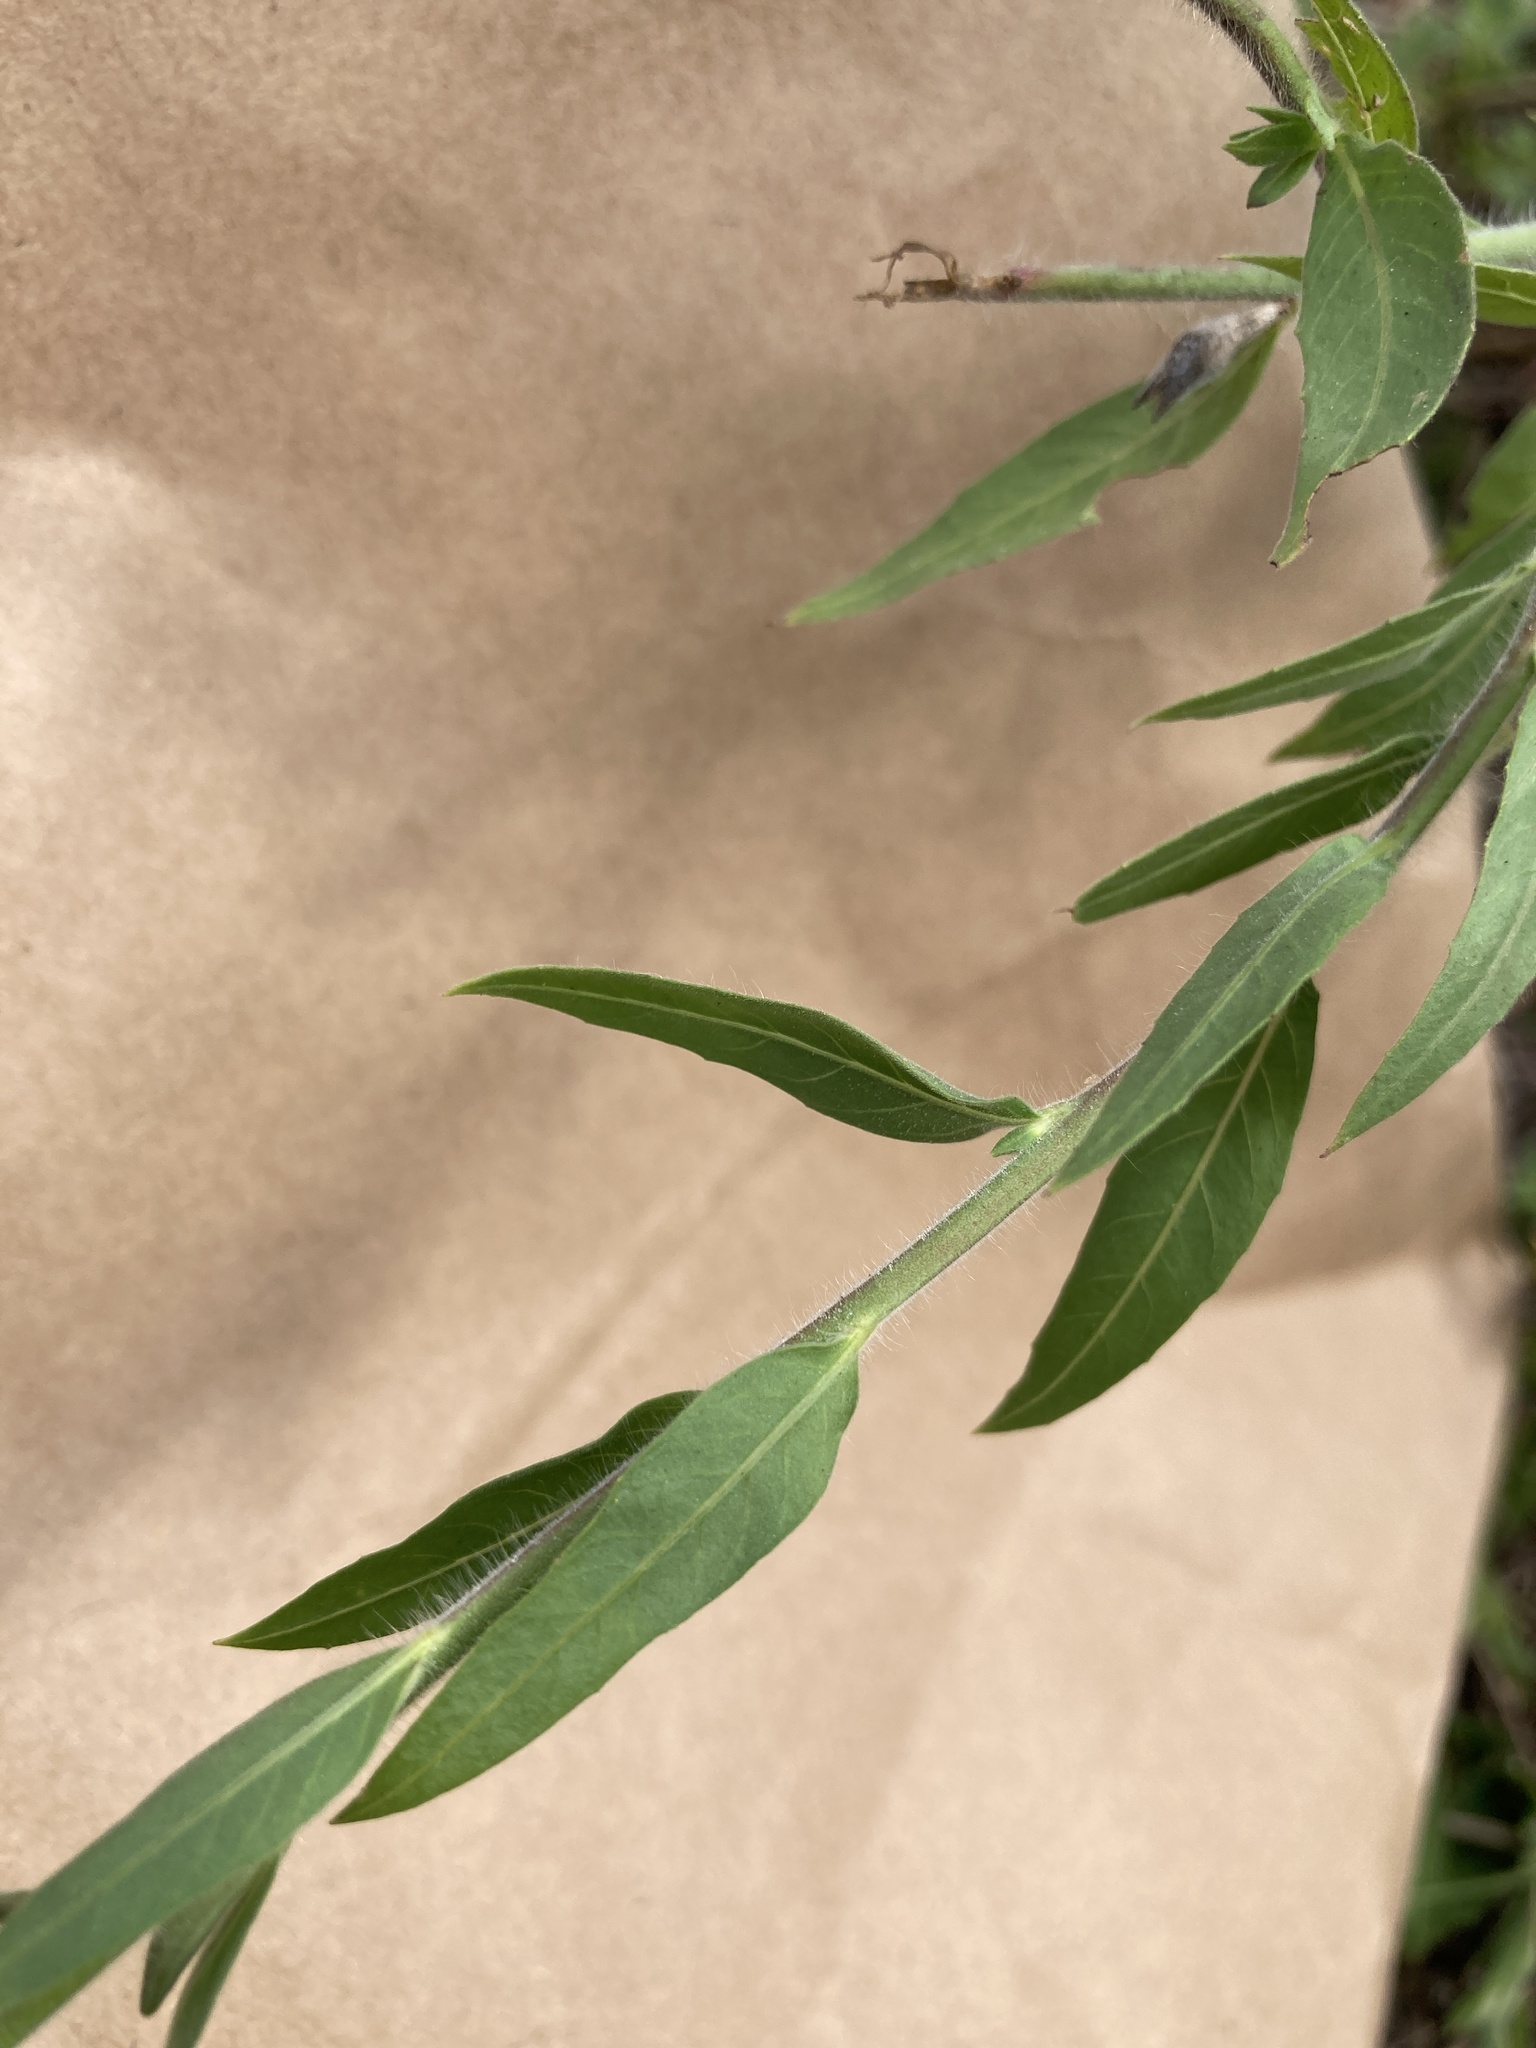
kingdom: Plantae
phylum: Tracheophyta
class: Magnoliopsida
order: Myrtales
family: Onagraceae
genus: Oenothera
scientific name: Oenothera curtiflora
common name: Velvetweed
